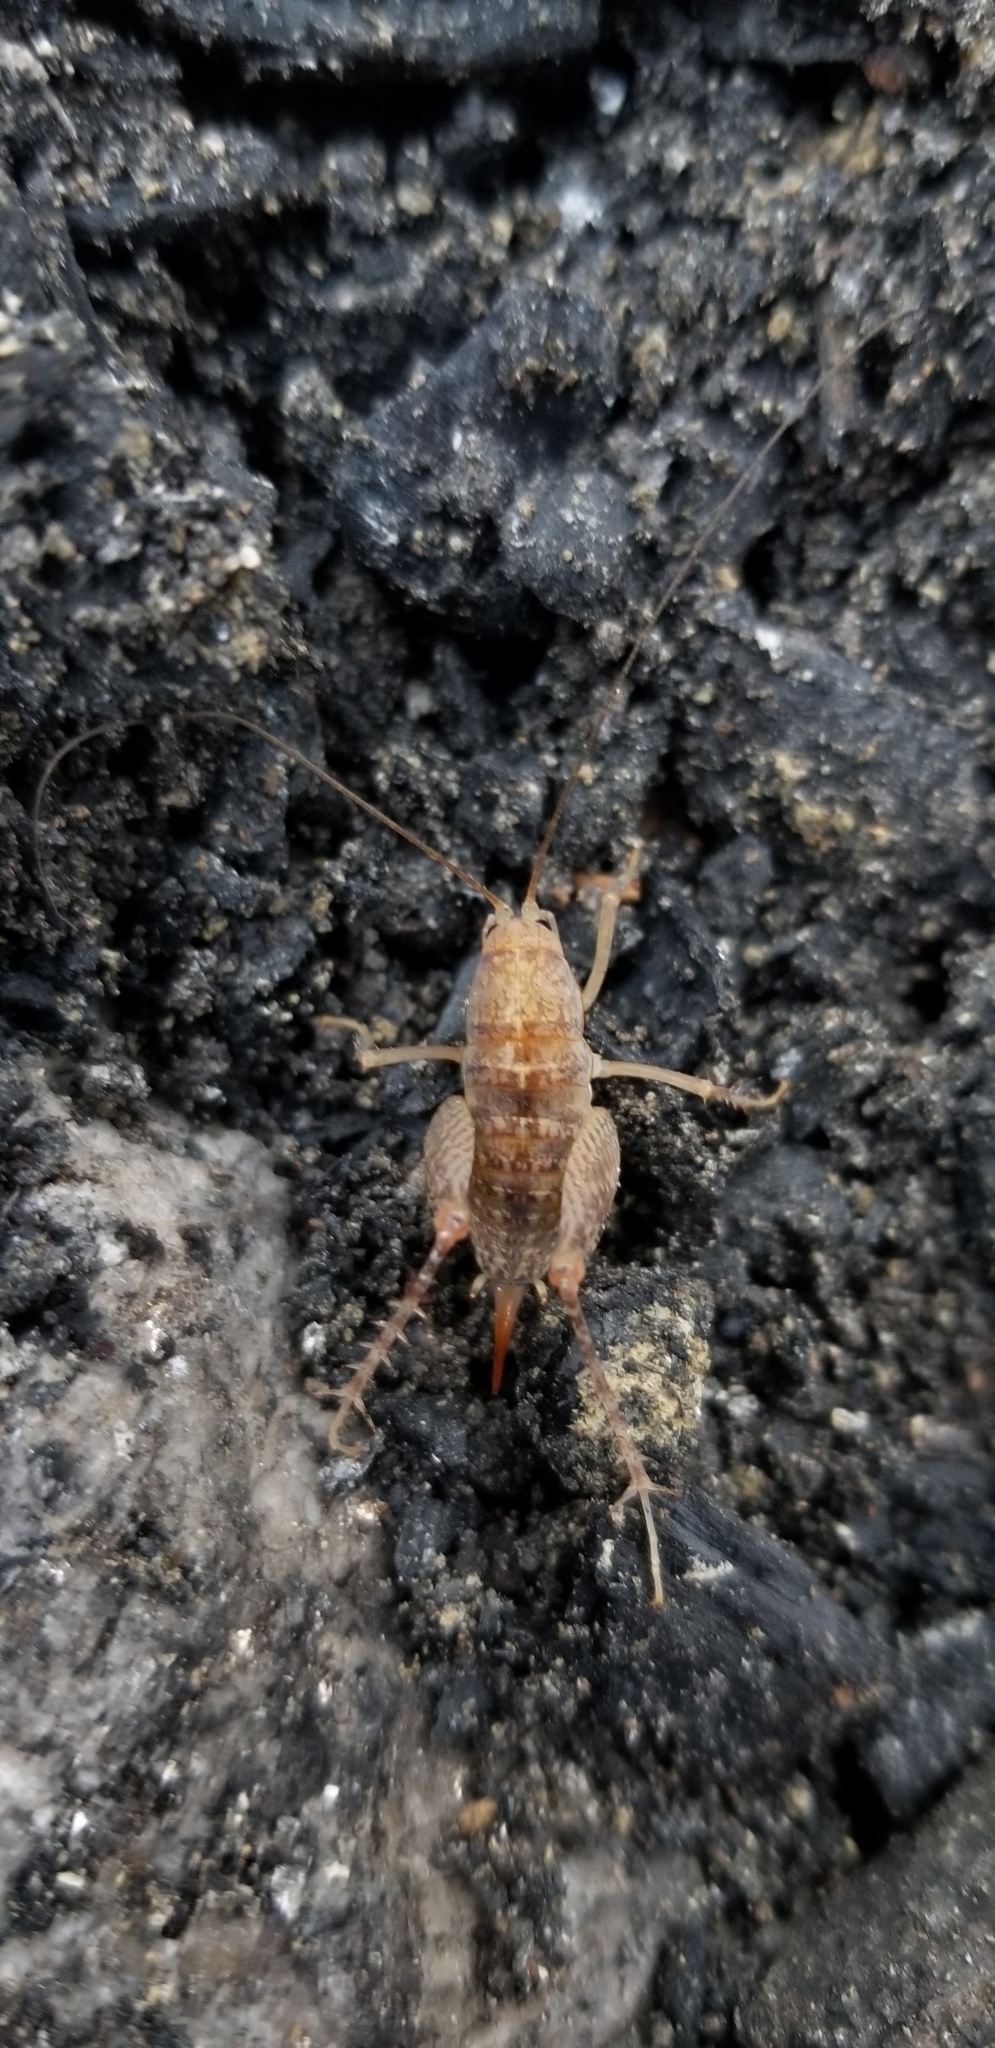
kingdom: Animalia
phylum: Arthropoda
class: Insecta
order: Orthoptera
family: Rhaphidophoridae
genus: Pristoceuthophilus
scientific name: Pristoceuthophilus
